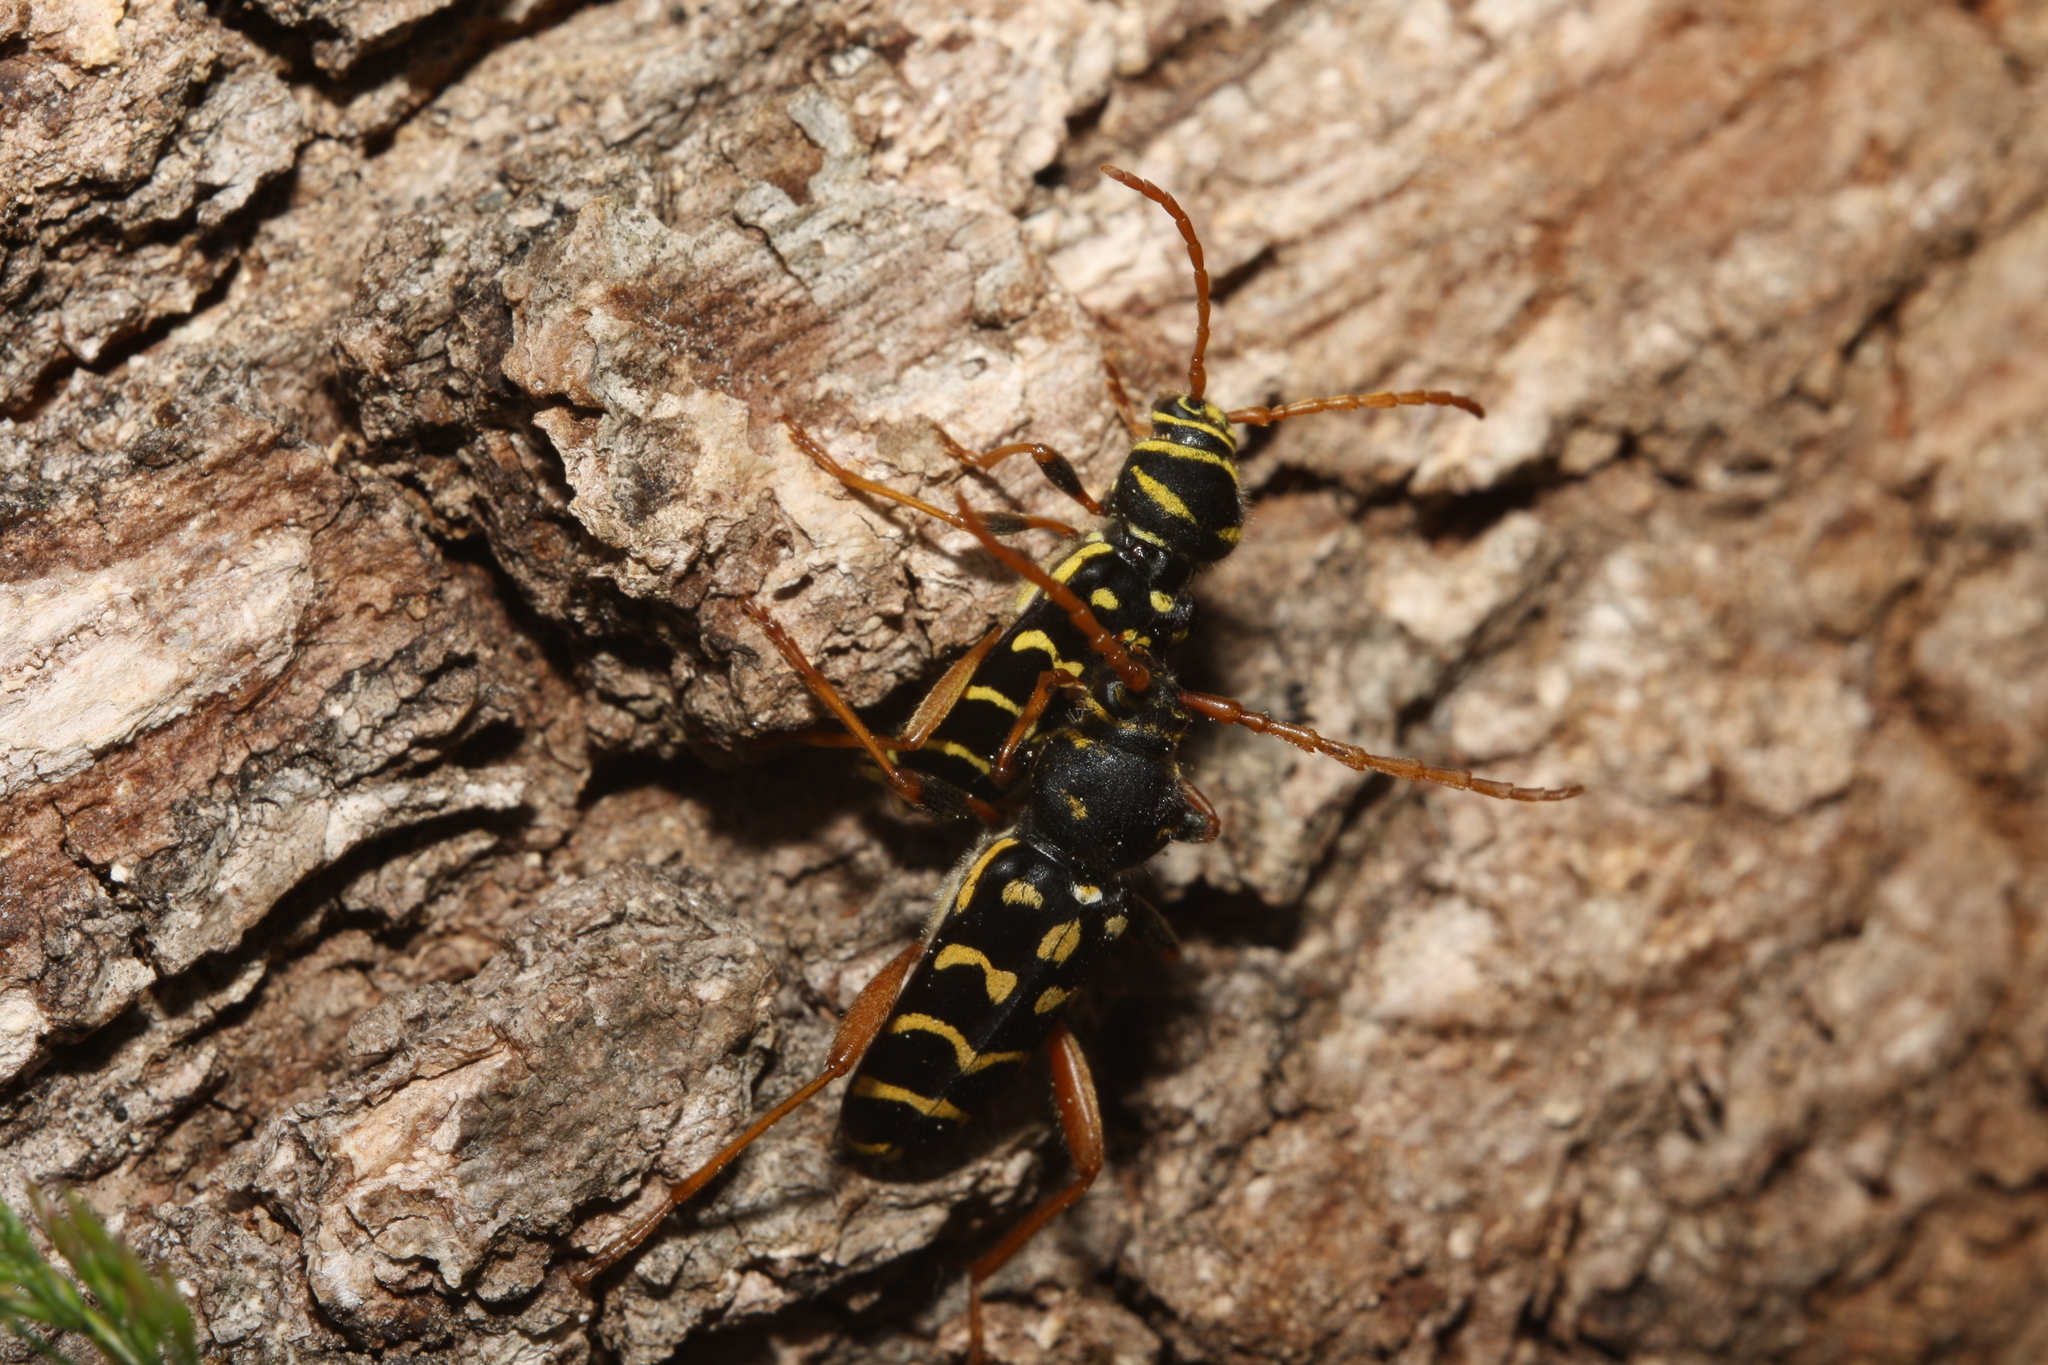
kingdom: Animalia
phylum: Arthropoda
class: Insecta
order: Coleoptera
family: Cerambycidae
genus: Plagionotus
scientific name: Plagionotus arcuatus
